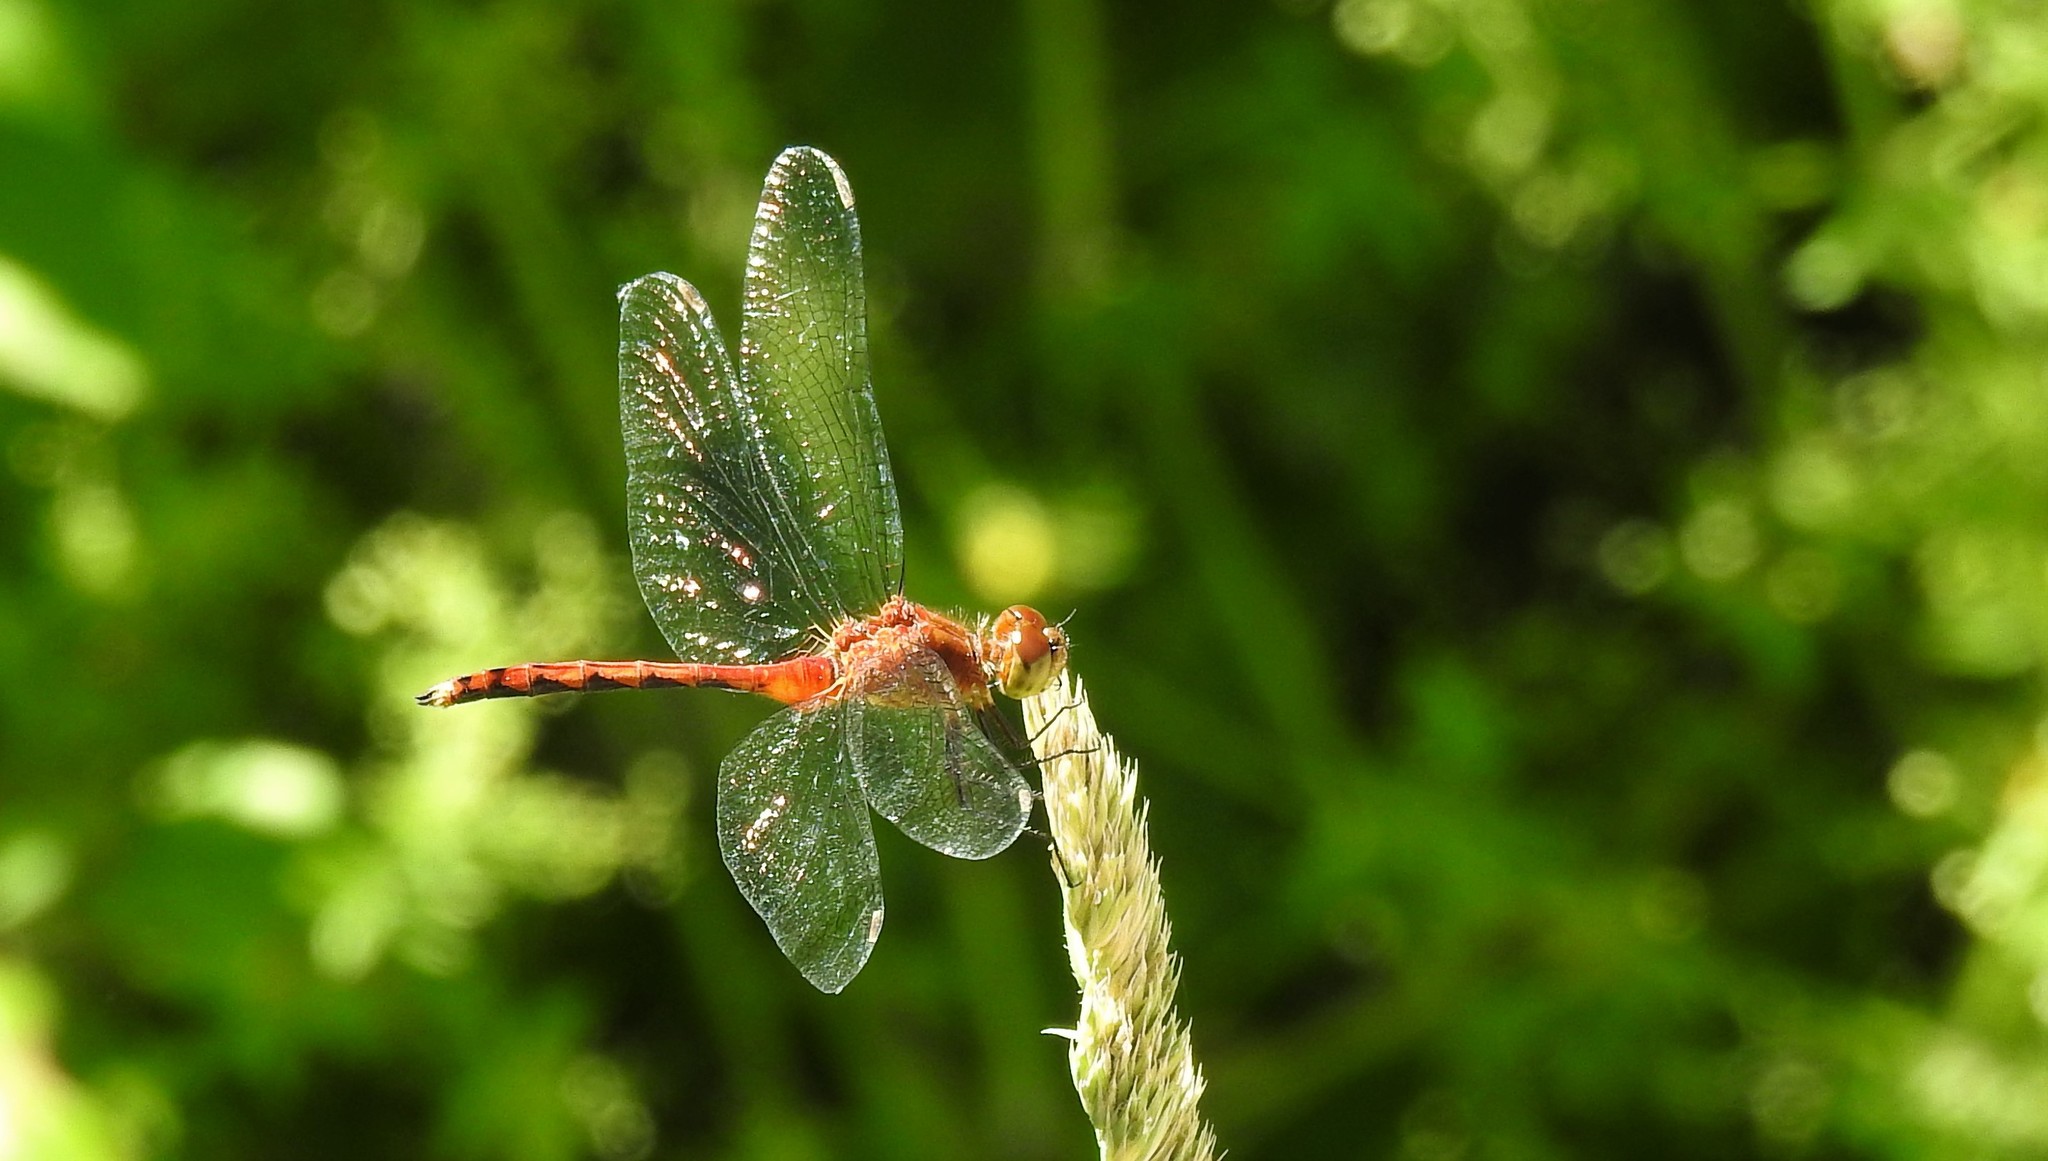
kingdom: Animalia
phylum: Arthropoda
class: Insecta
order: Odonata
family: Libellulidae
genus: Sympetrum
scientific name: Sympetrum
